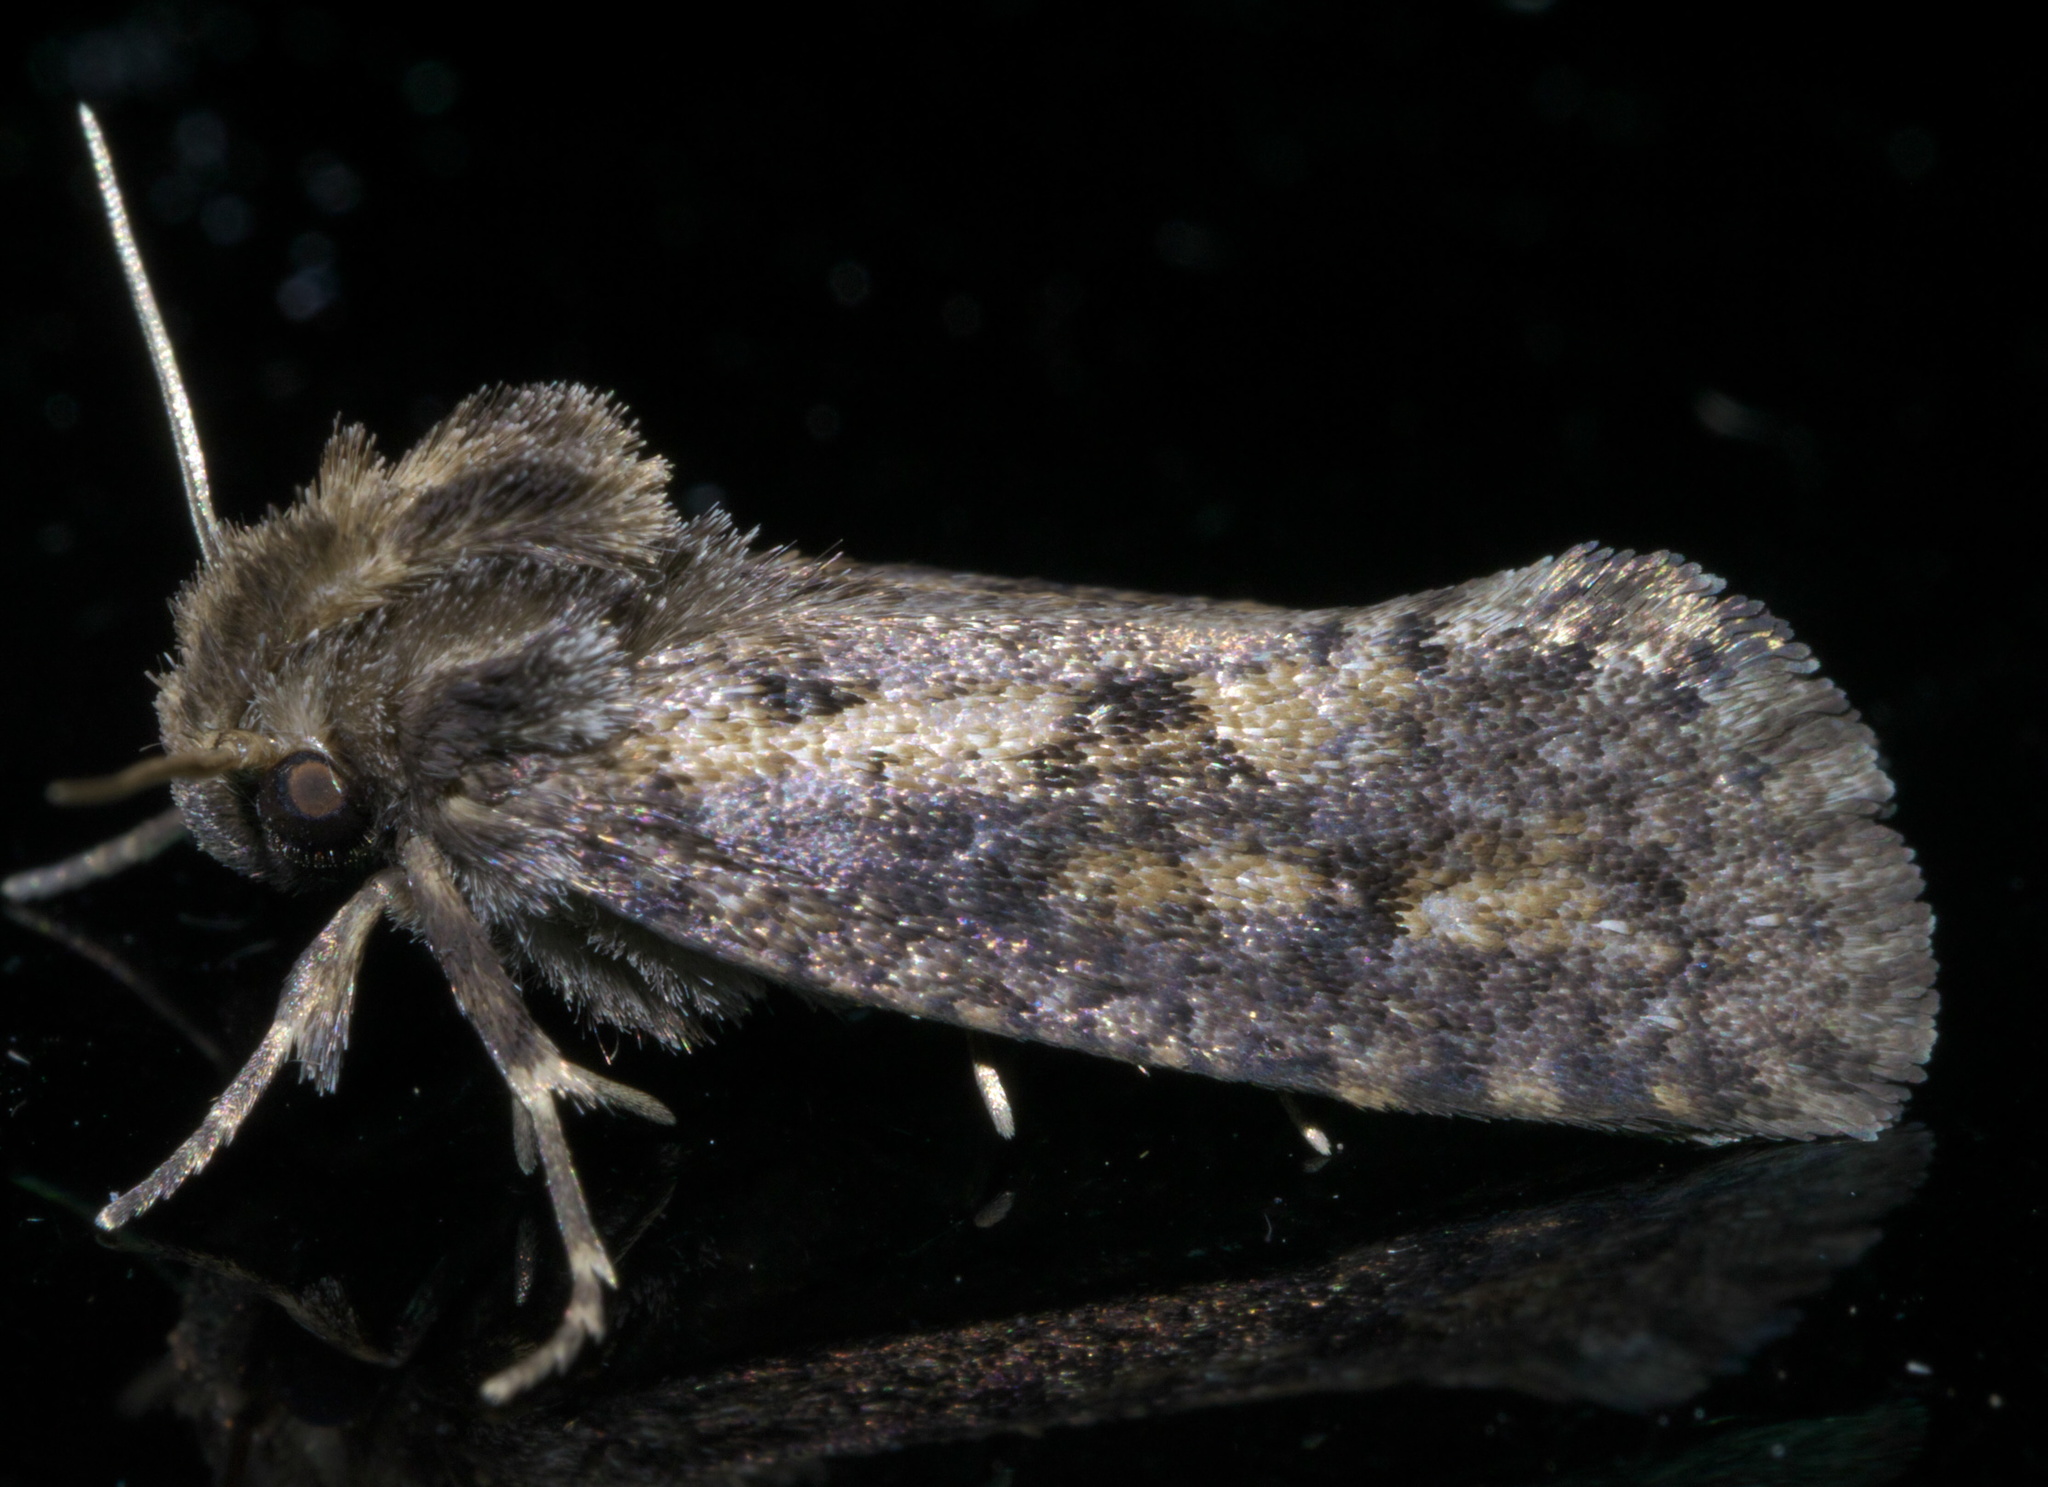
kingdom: Animalia
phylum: Arthropoda
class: Insecta
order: Lepidoptera
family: Tineidae
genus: Acrolophus
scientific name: Acrolophus popeanella
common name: Clemens' grass tubeworm moth
